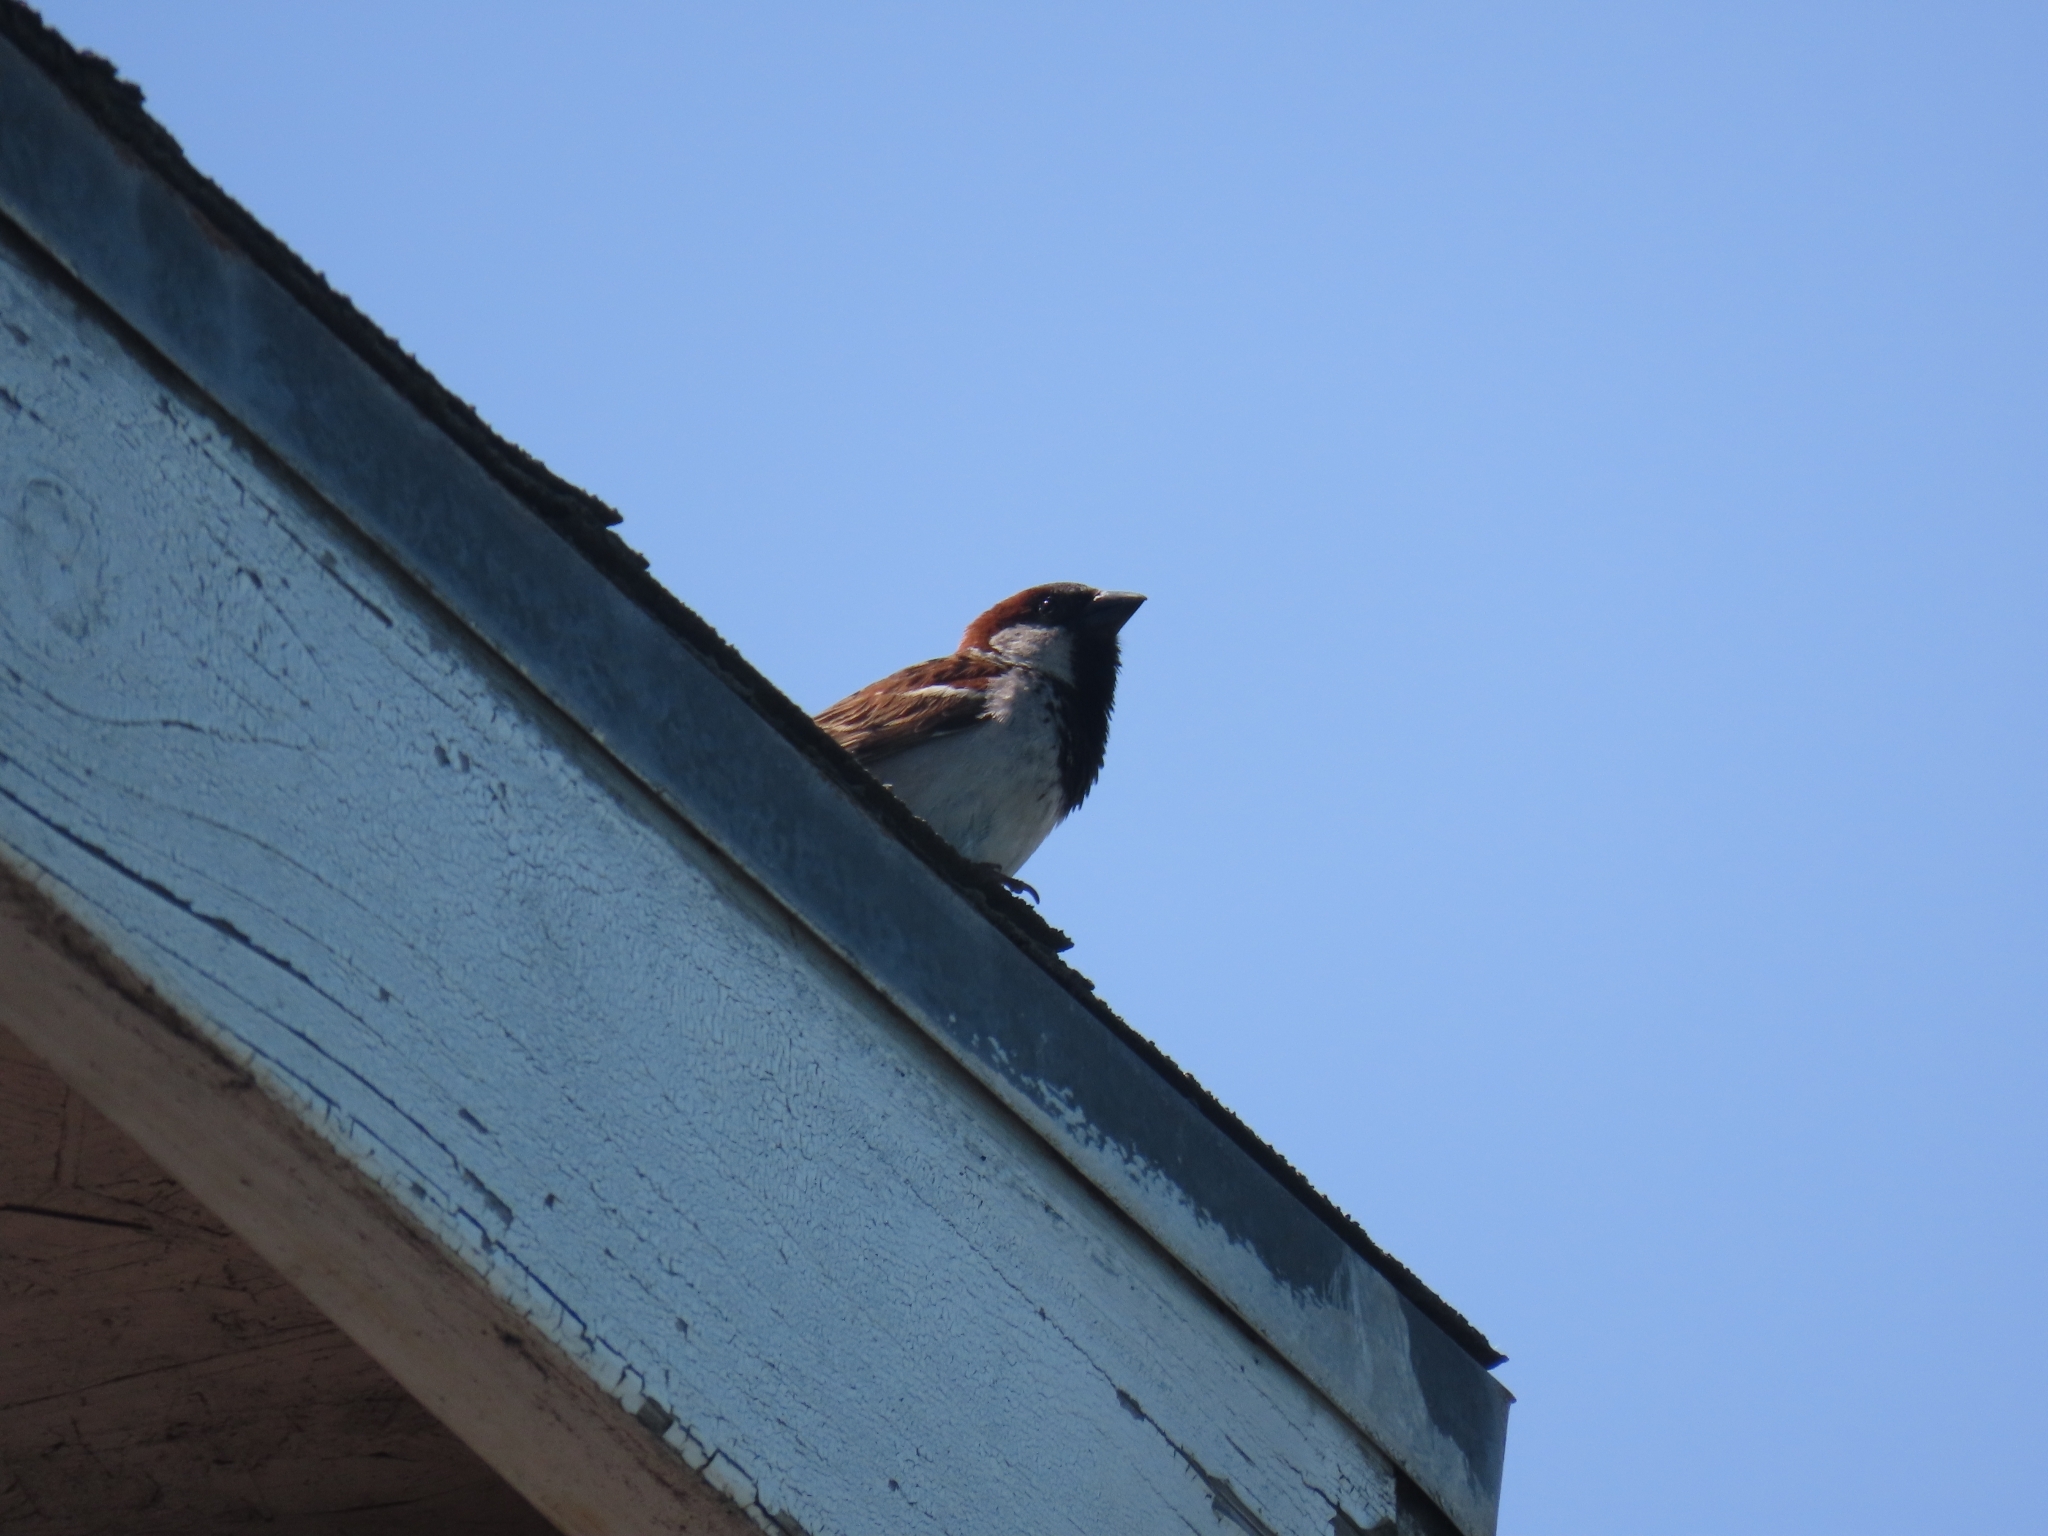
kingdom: Animalia
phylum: Chordata
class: Aves
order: Passeriformes
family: Passeridae
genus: Passer
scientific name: Passer domesticus
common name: House sparrow
